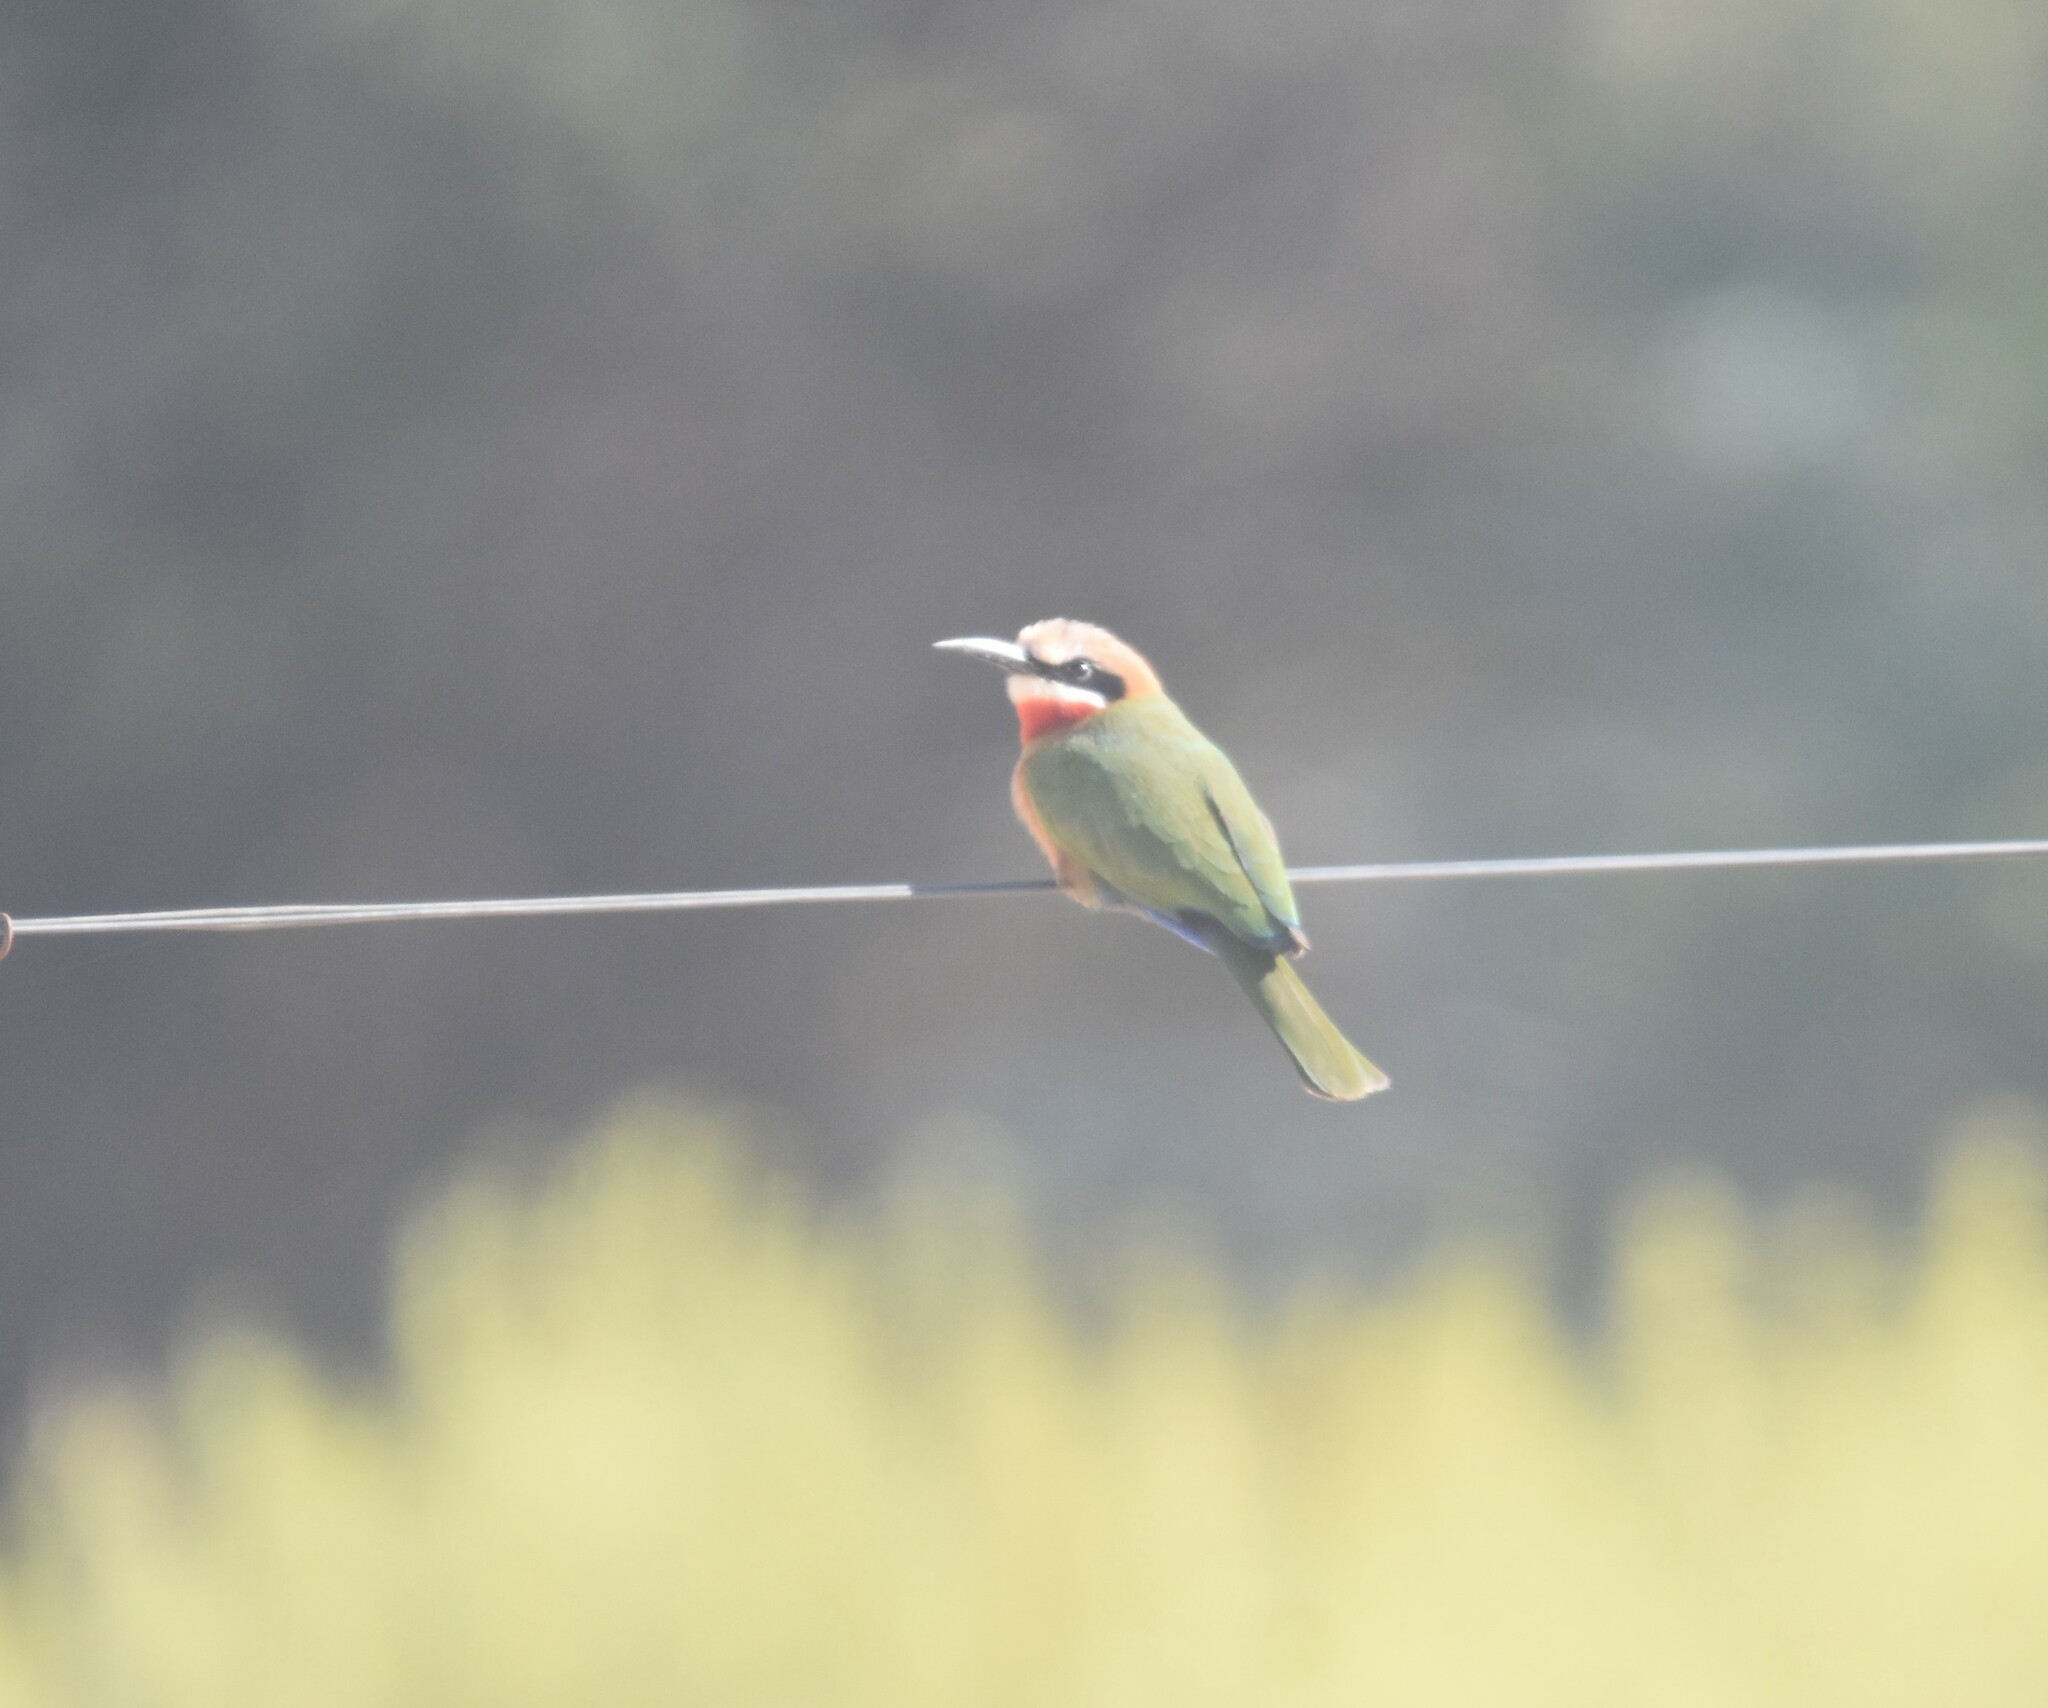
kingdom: Animalia
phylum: Chordata
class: Aves
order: Coraciiformes
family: Meropidae
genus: Merops
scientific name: Merops bullockoides
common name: White-fronted bee-eater
